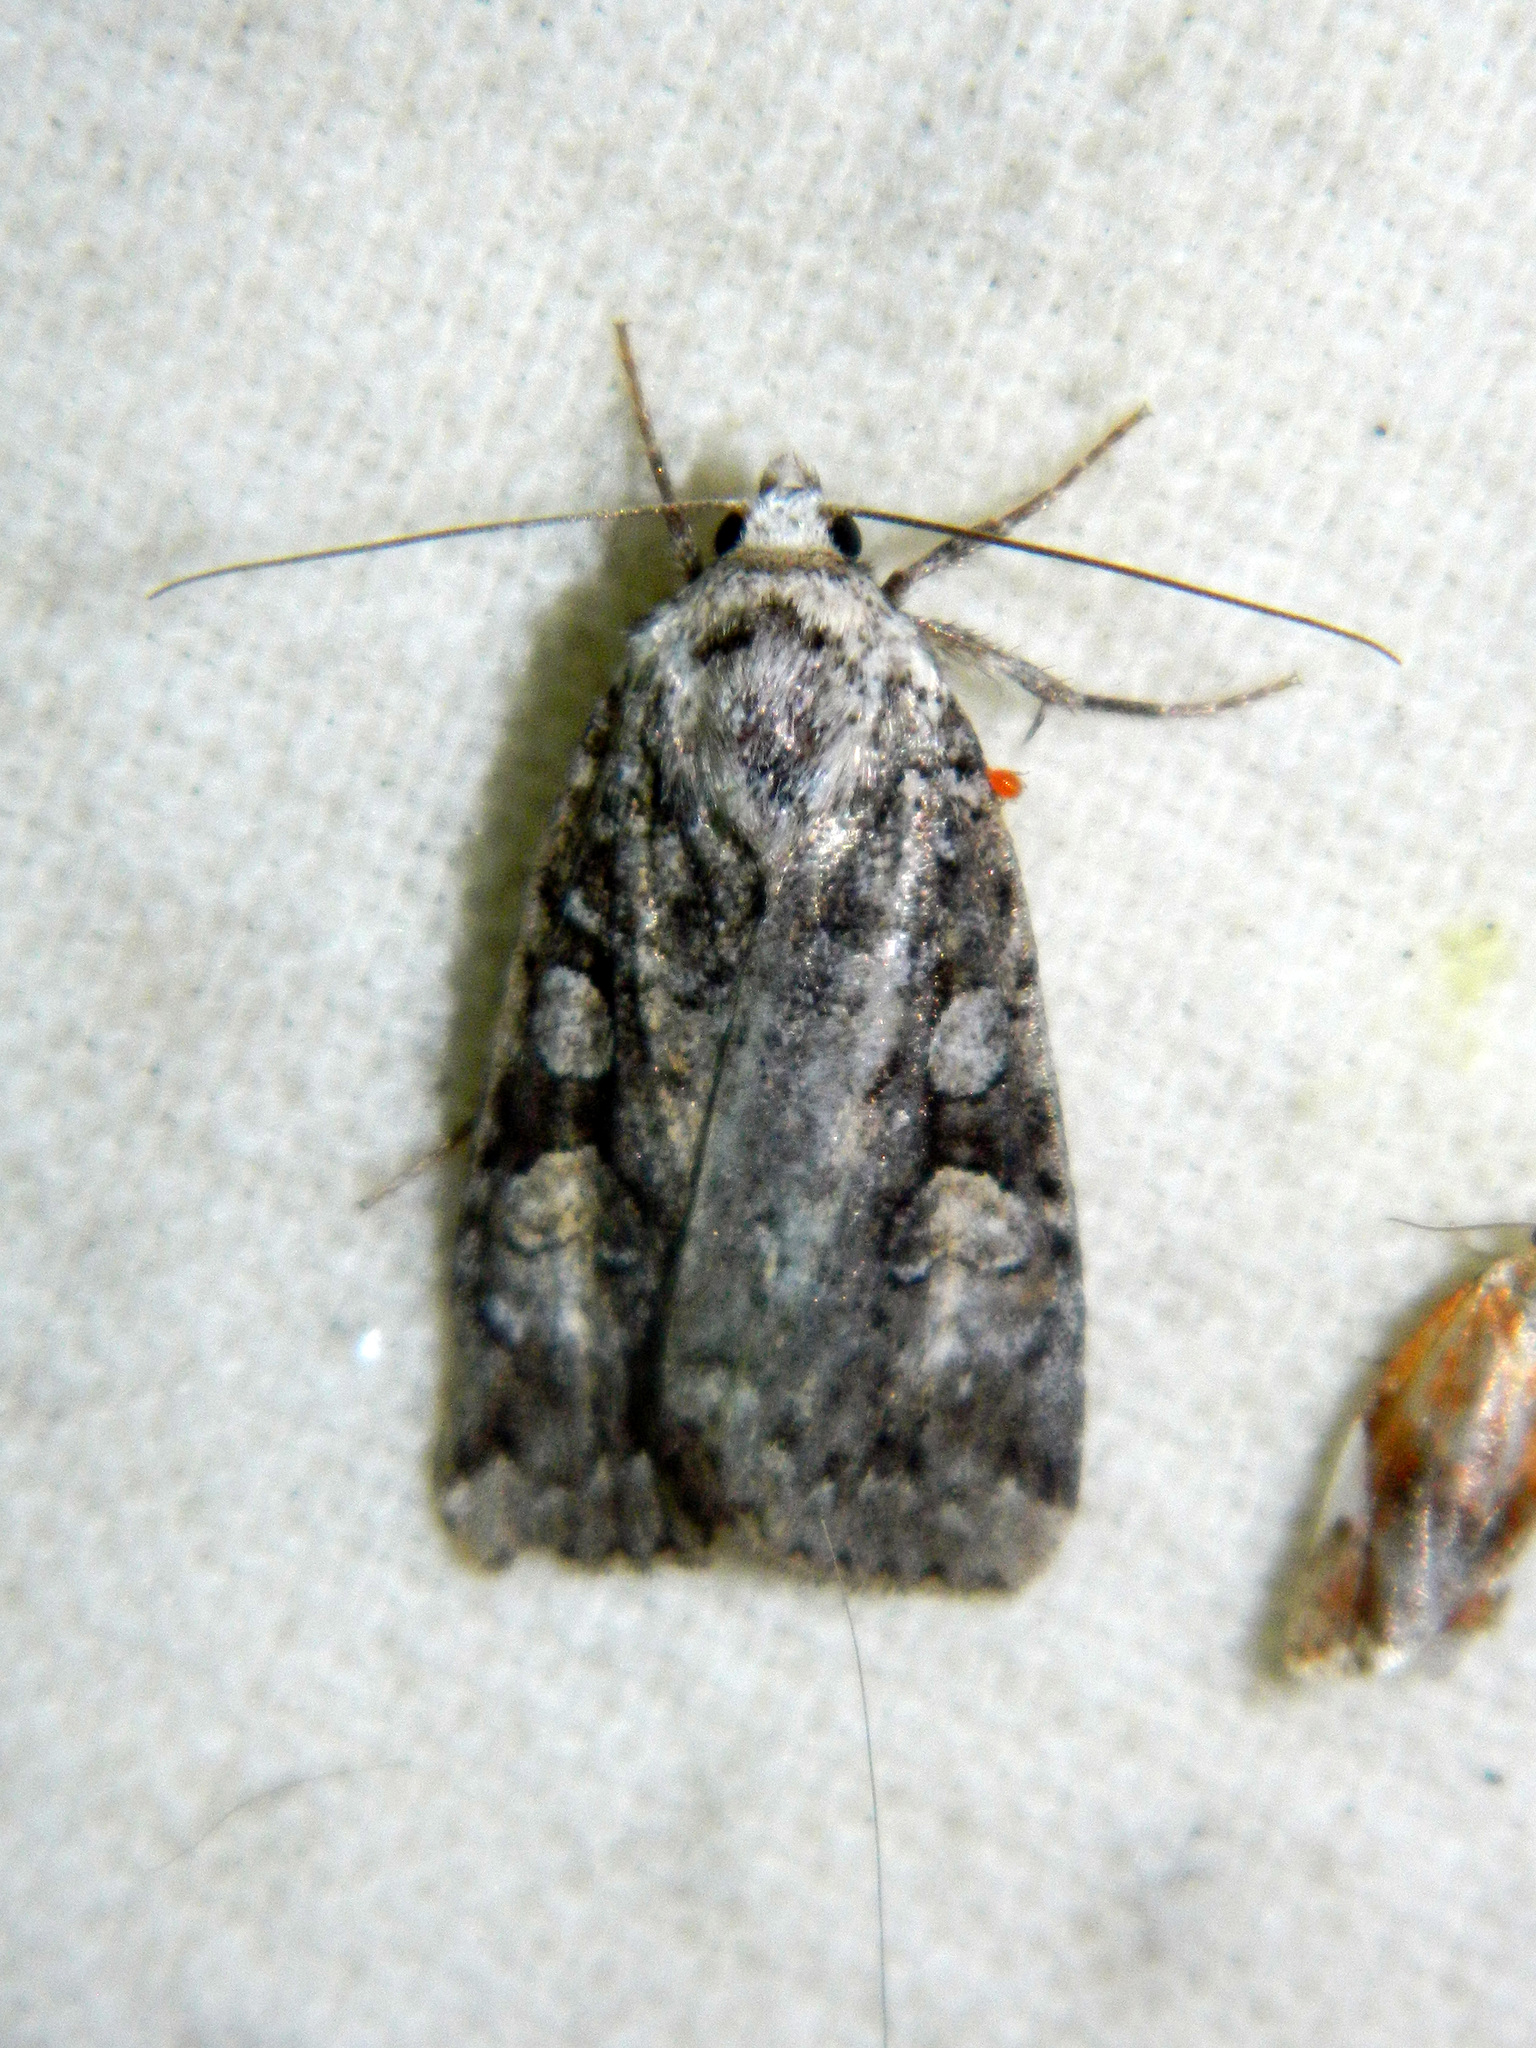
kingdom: Animalia
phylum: Arthropoda
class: Insecta
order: Lepidoptera
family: Noctuidae
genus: Anaplectoides
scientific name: Anaplectoides pressus
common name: Dappled dart
